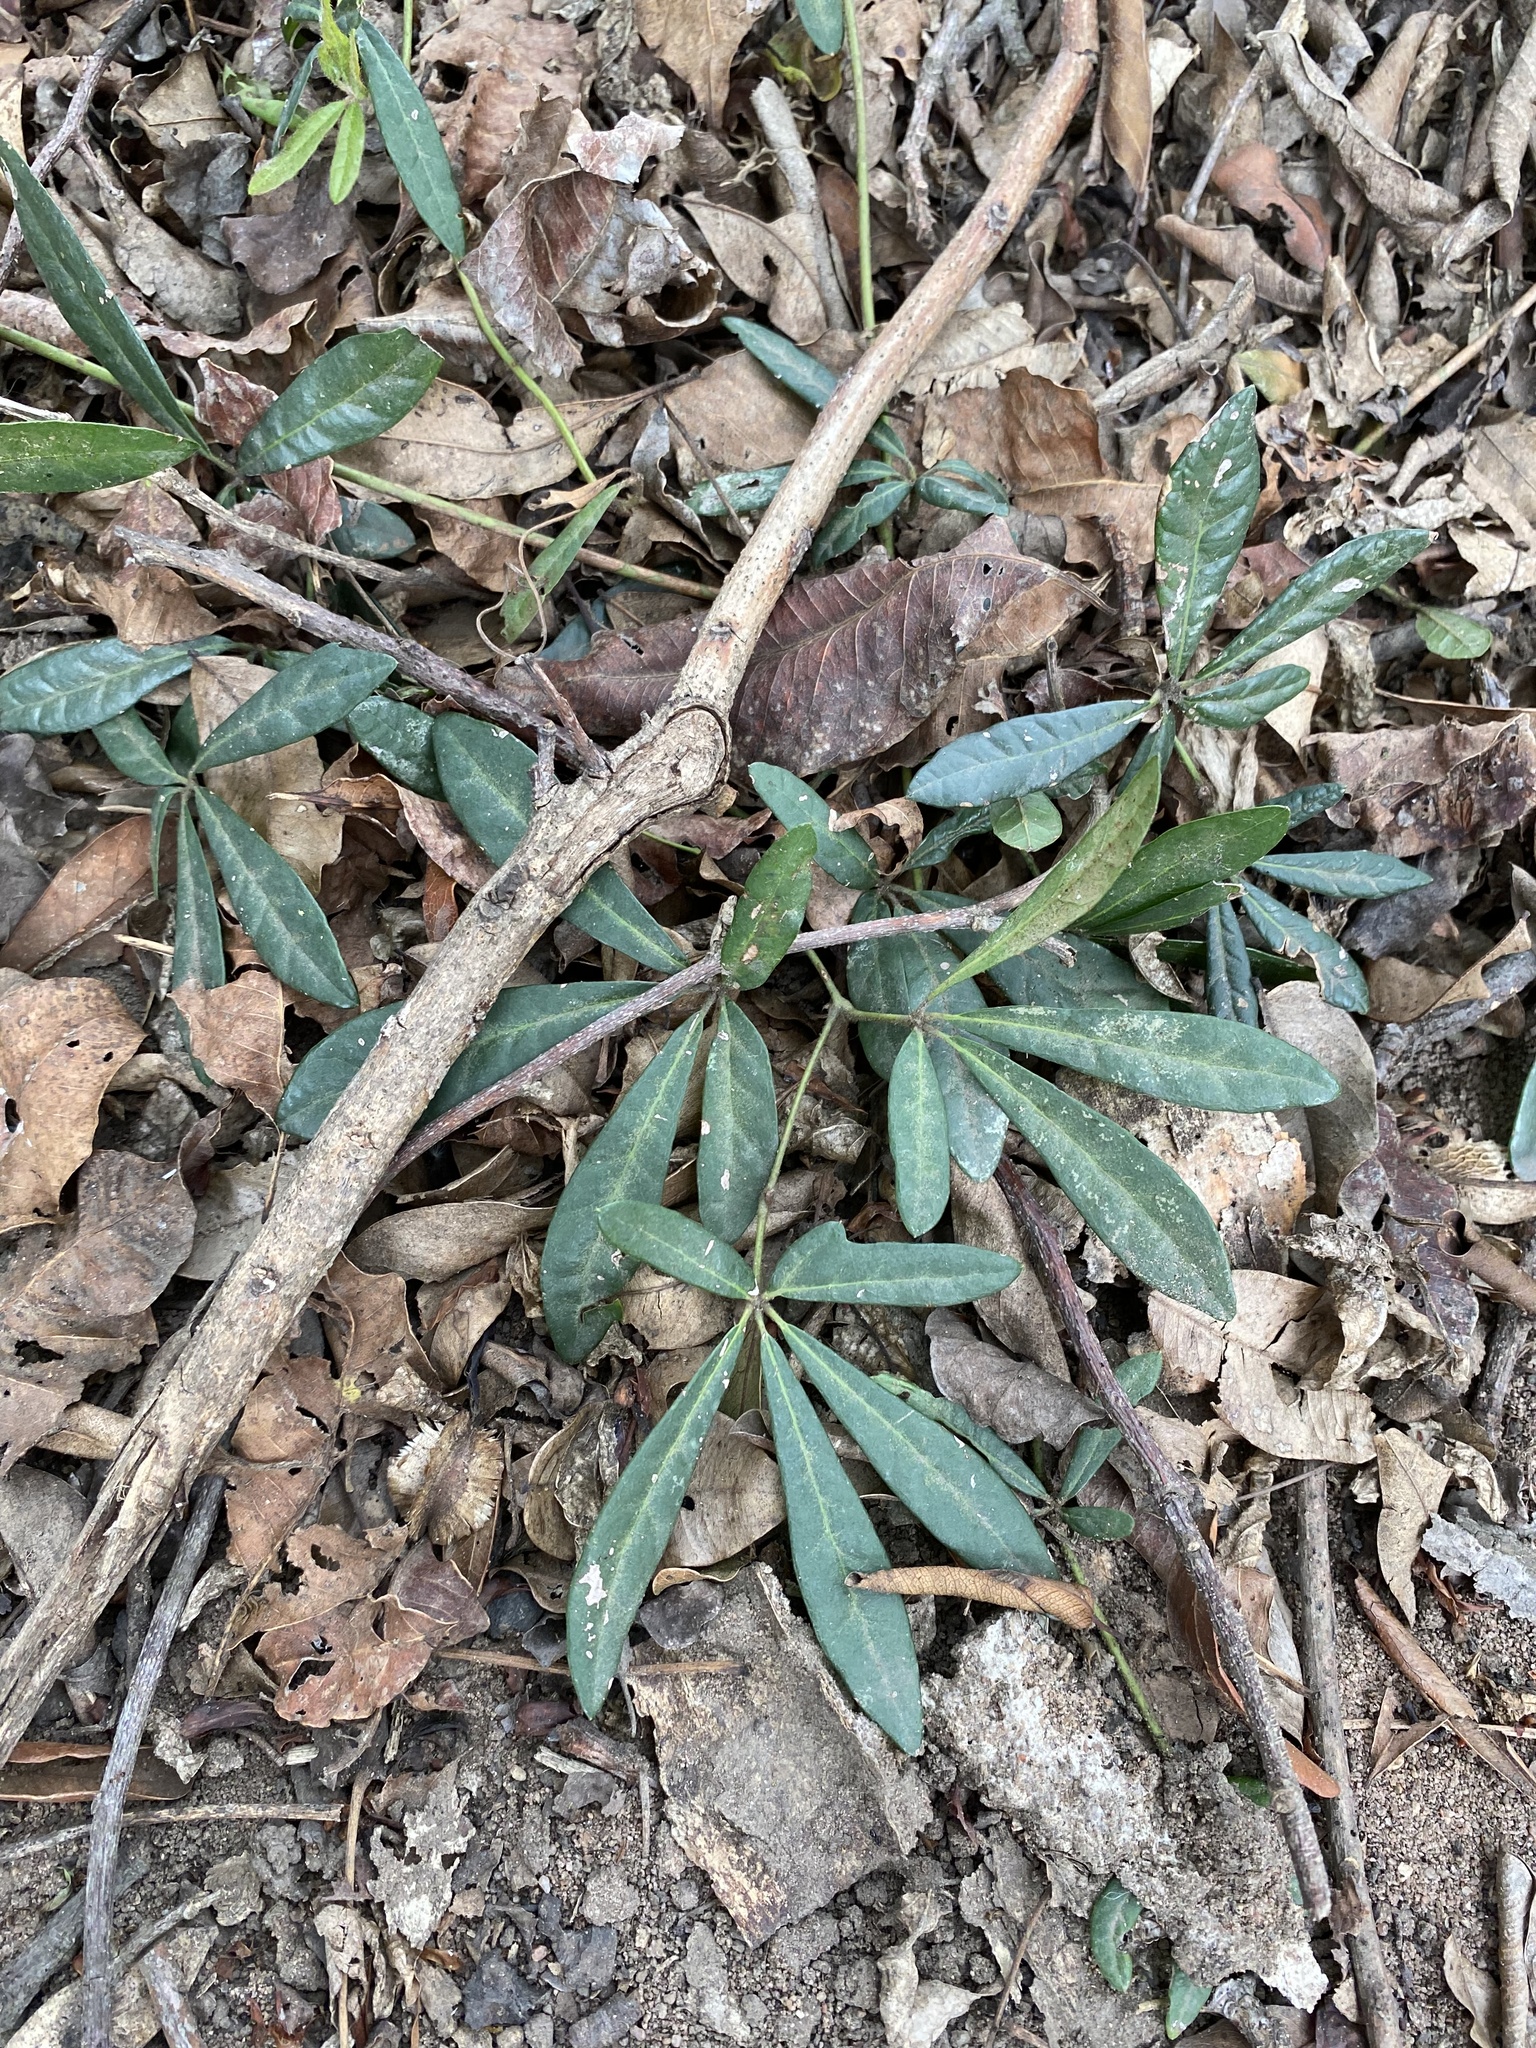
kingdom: Plantae
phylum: Tracheophyta
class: Magnoliopsida
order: Vitales
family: Vitaceae
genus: Rhoicissus
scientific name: Rhoicissus digitata
